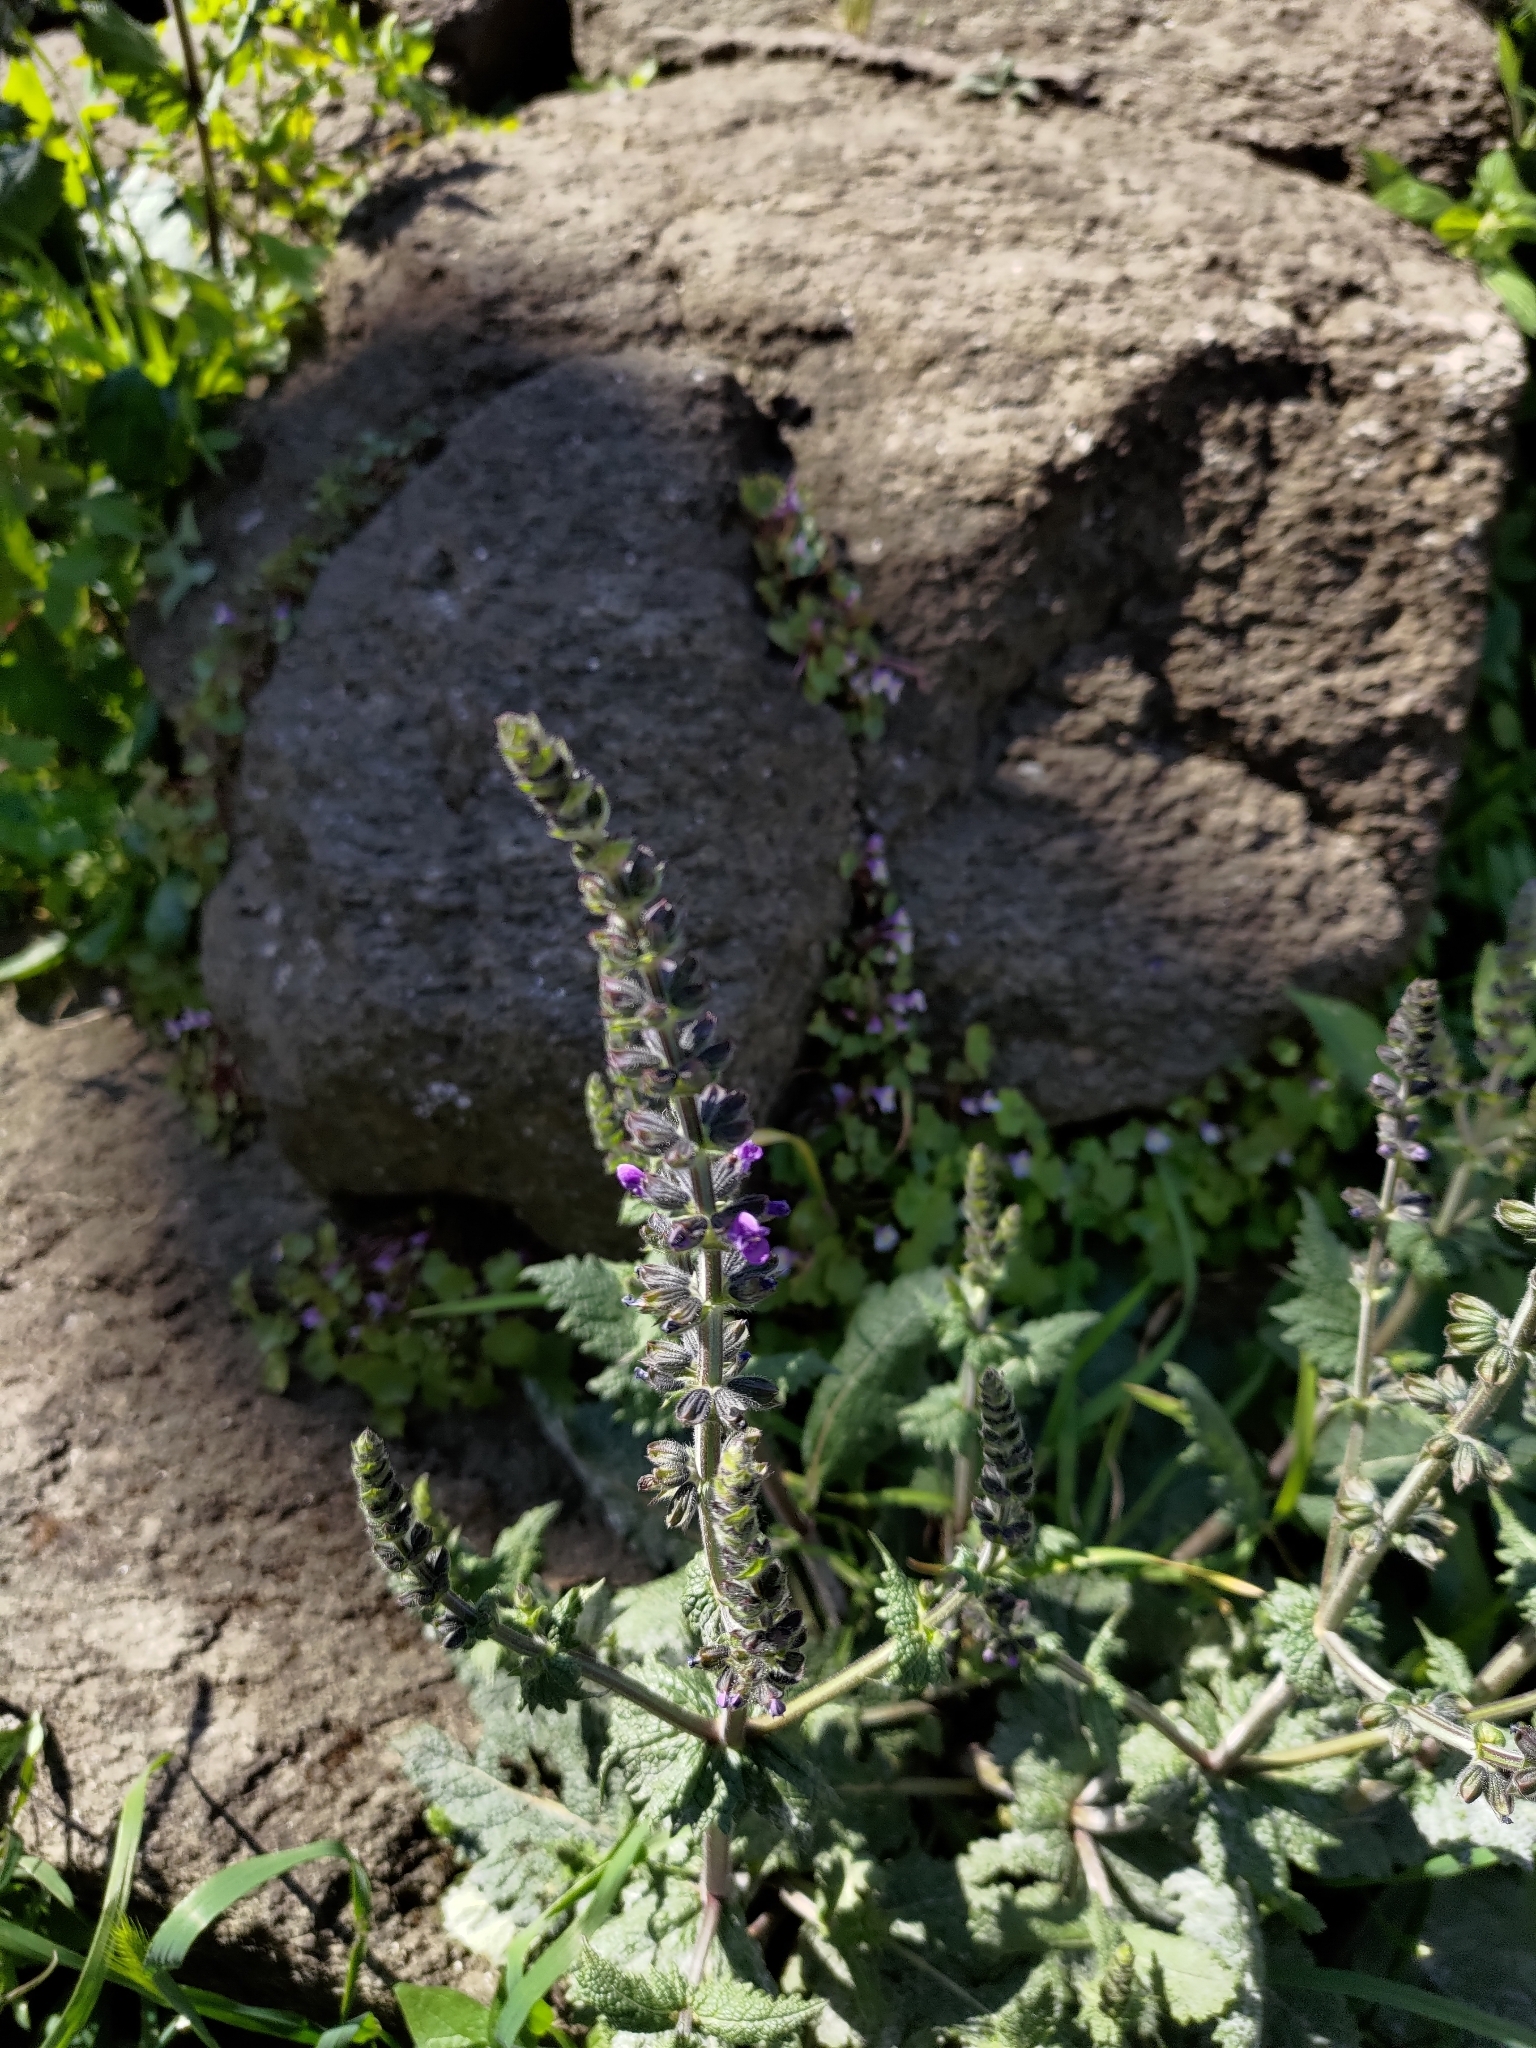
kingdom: Plantae
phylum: Tracheophyta
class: Magnoliopsida
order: Lamiales
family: Lamiaceae
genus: Salvia
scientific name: Salvia verbenaca
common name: Wild clary
